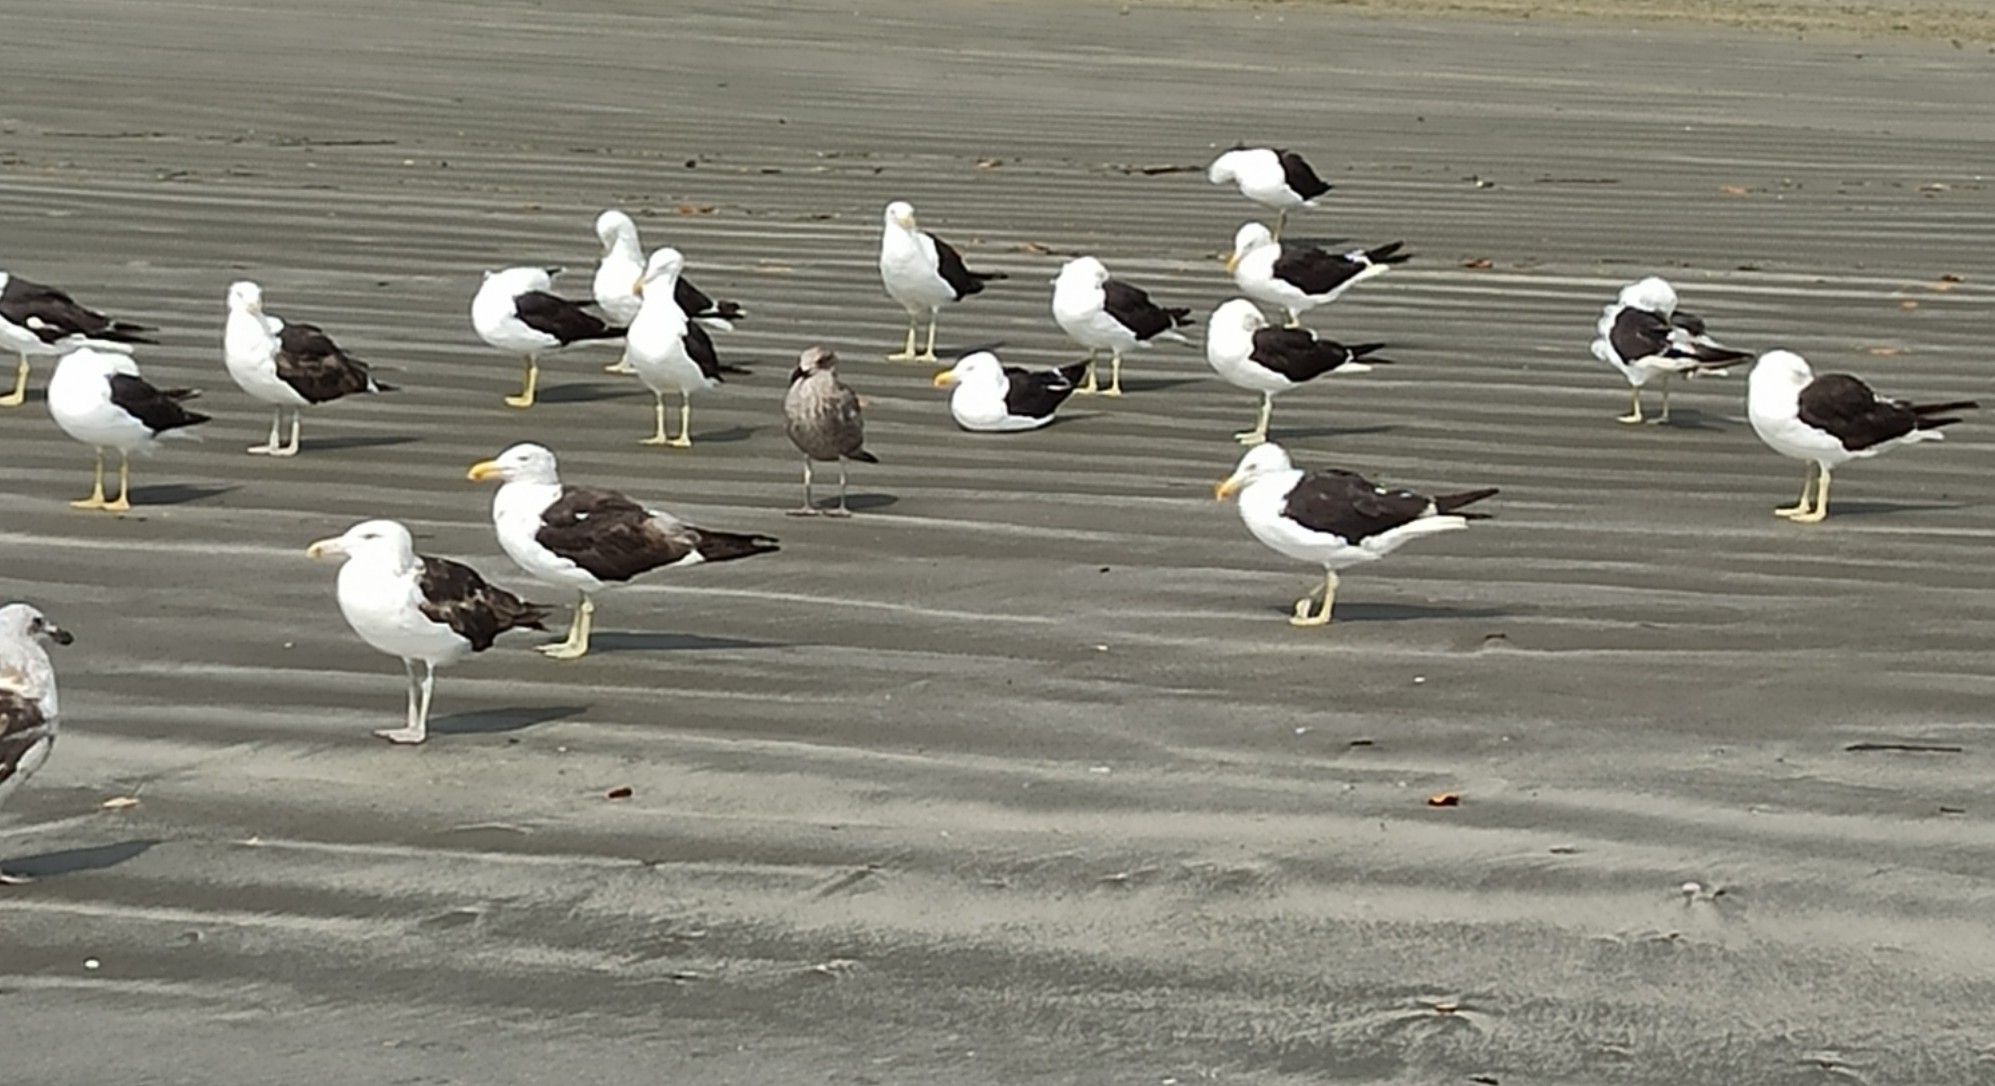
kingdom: Animalia
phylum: Chordata
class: Aves
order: Charadriiformes
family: Laridae
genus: Larus
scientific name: Larus dominicanus
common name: Kelp gull
